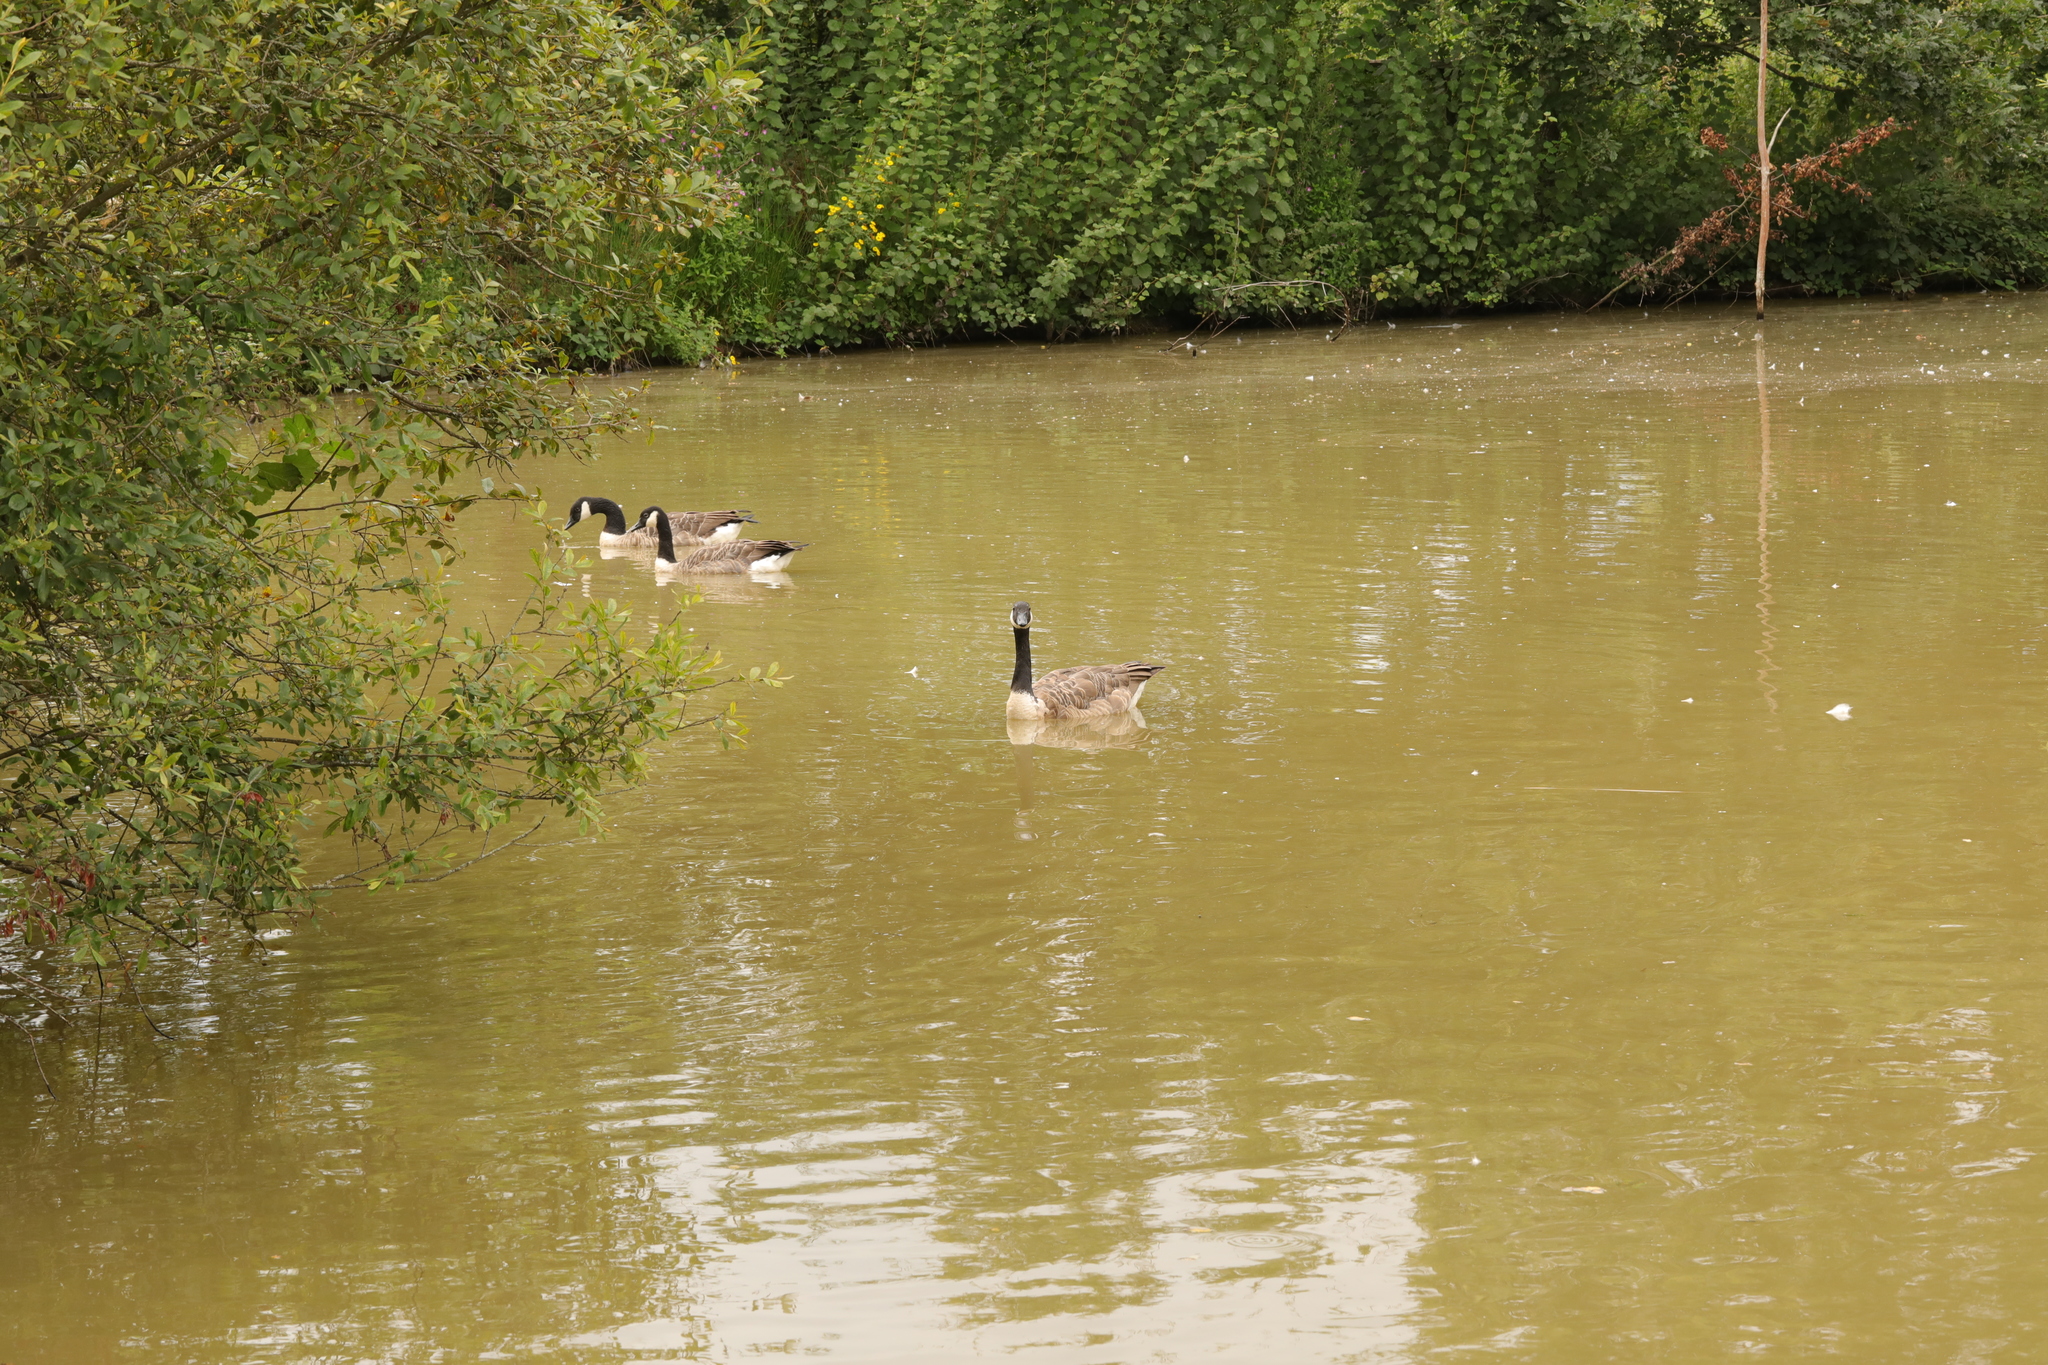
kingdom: Animalia
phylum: Chordata
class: Aves
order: Anseriformes
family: Anatidae
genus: Branta
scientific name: Branta canadensis
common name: Canada goose
